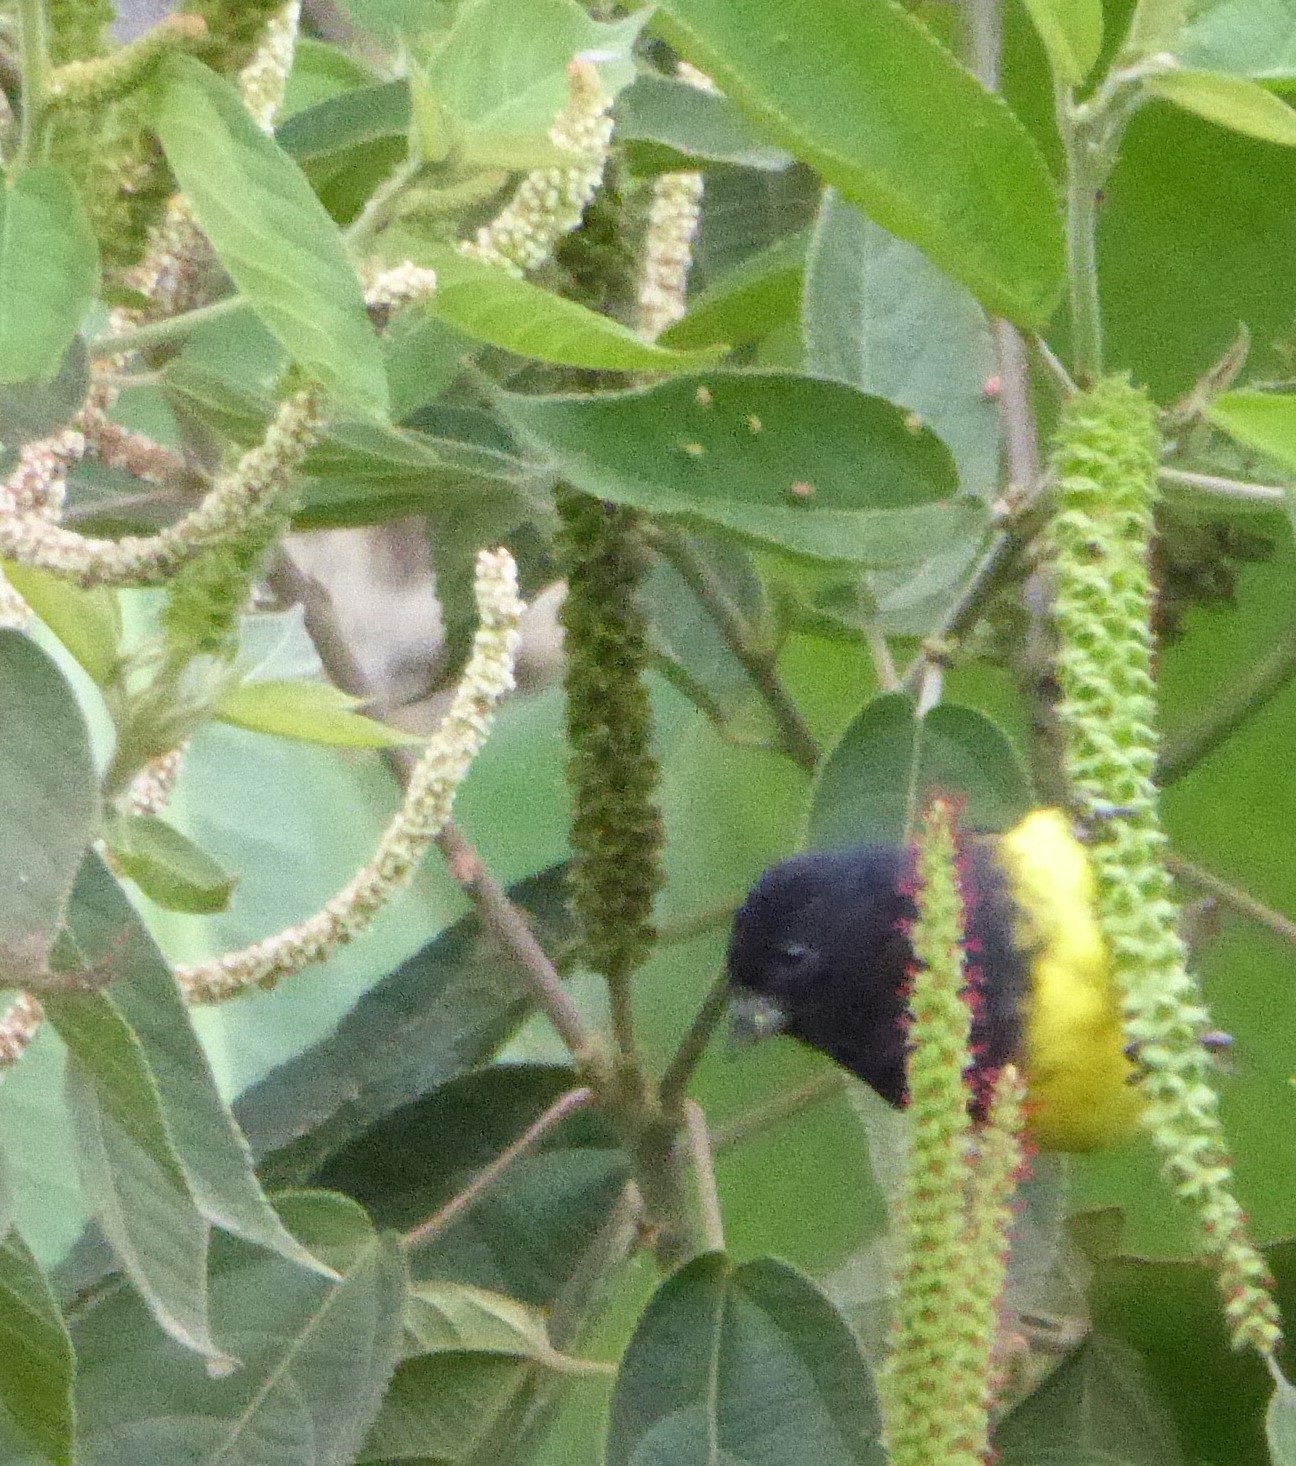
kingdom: Animalia
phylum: Chordata
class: Aves
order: Passeriformes
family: Fringillidae
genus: Spinus
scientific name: Spinus xanthogastrus
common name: Yellow-bellied siskin
